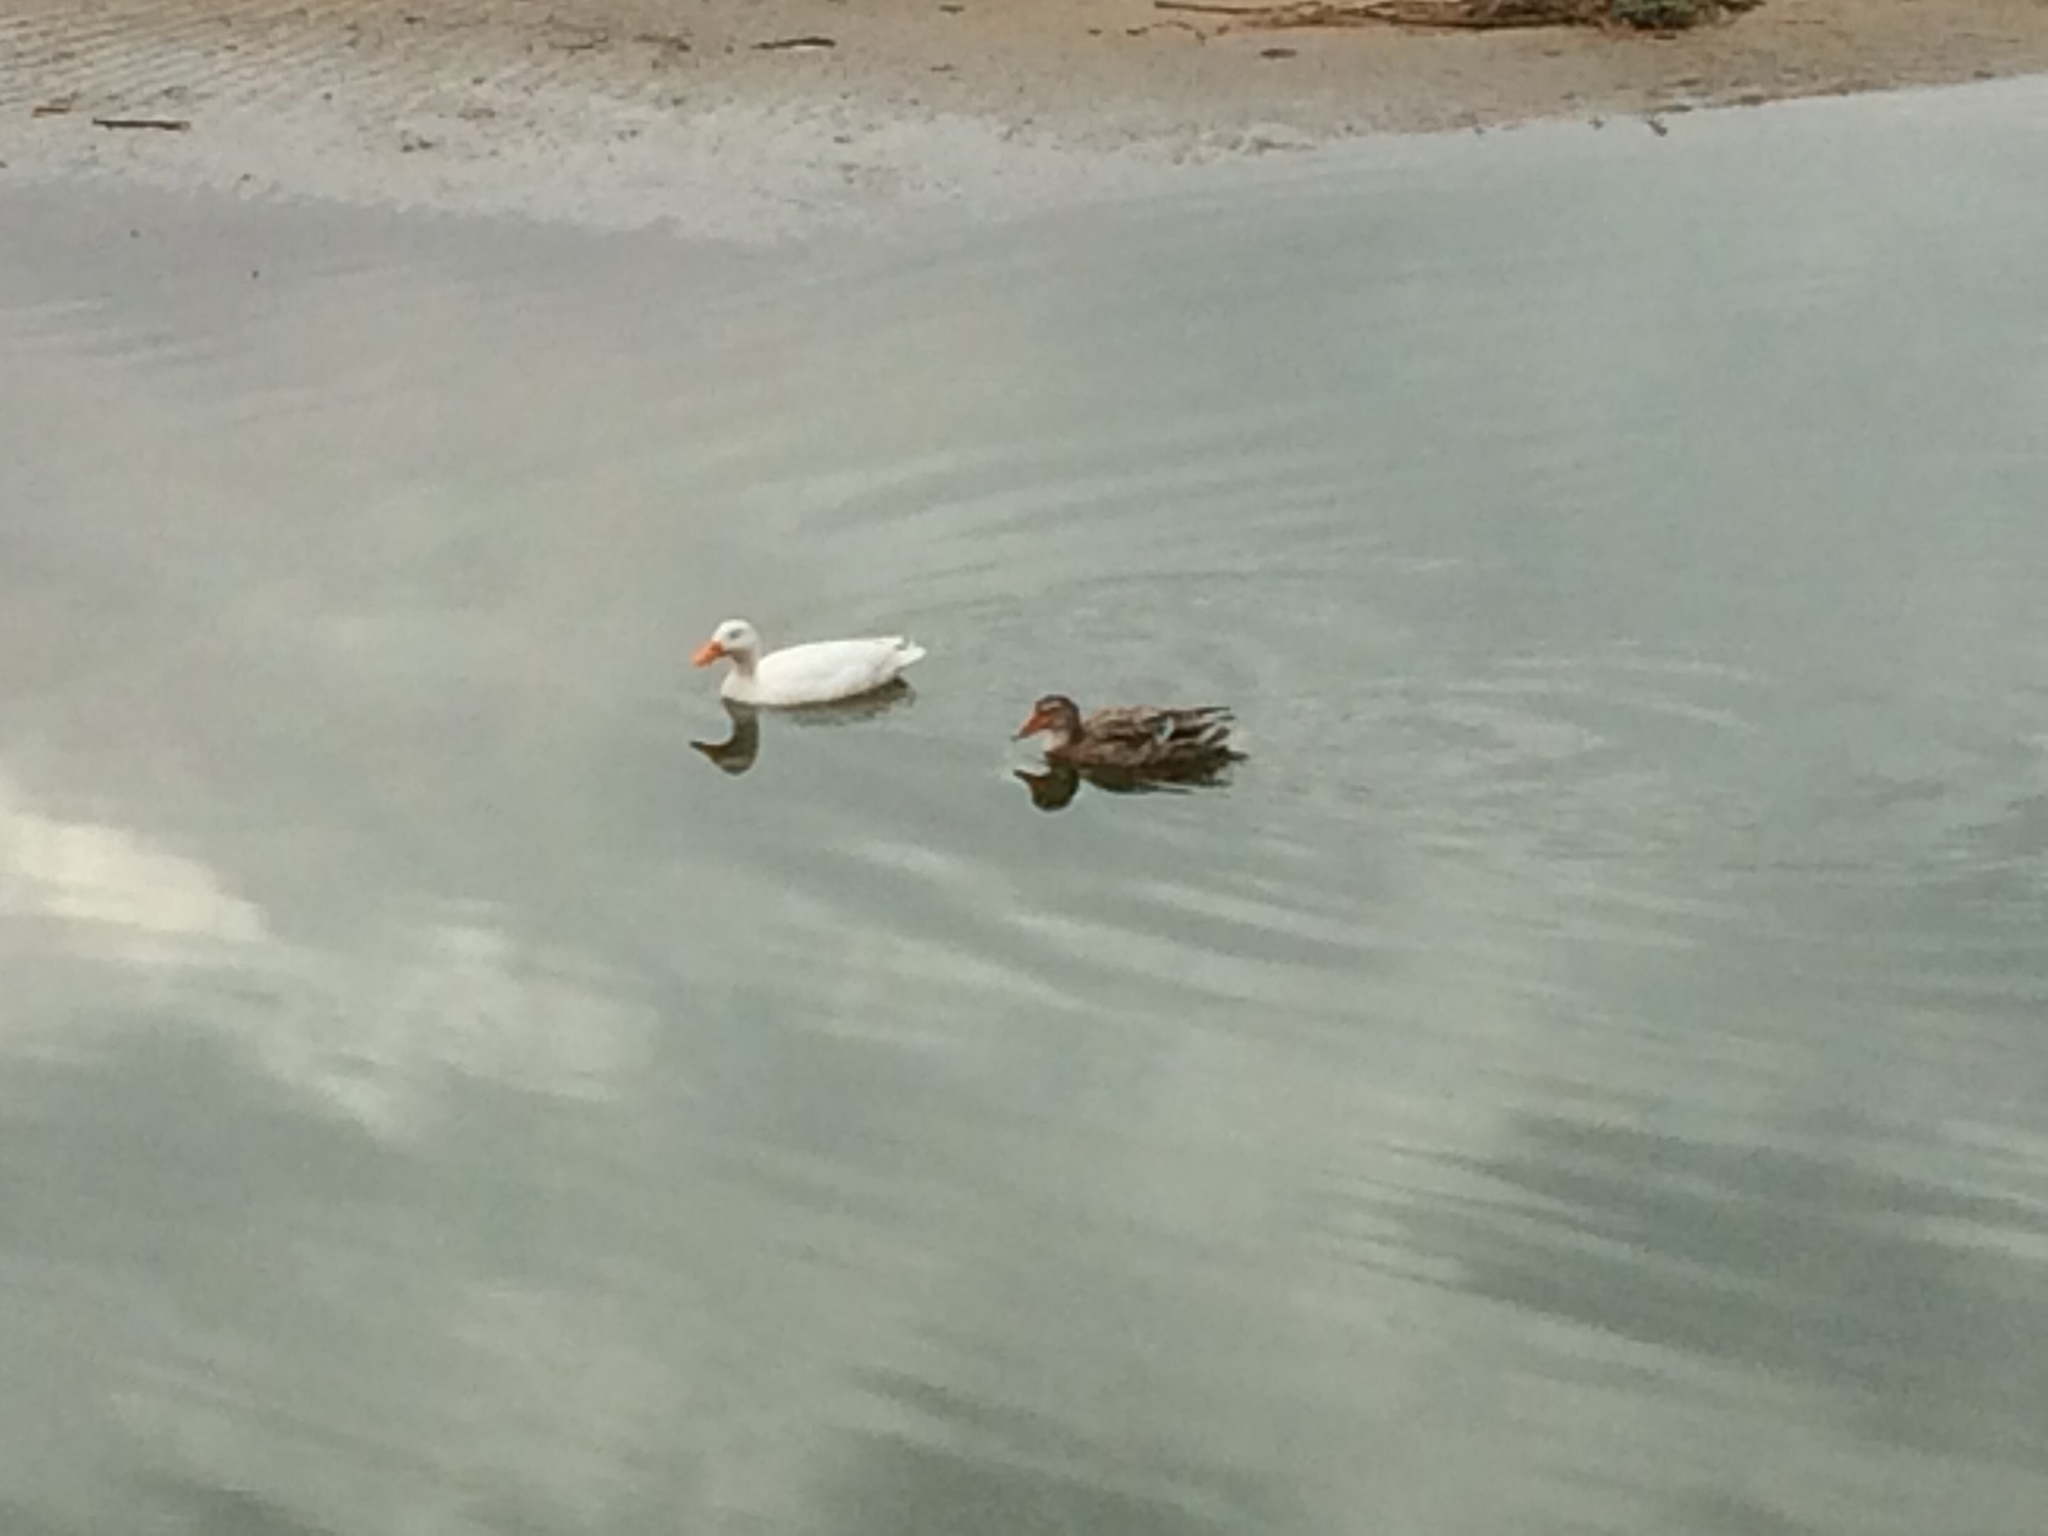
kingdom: Animalia
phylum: Chordata
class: Aves
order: Anseriformes
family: Anatidae
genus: Anas
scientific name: Anas platyrhynchos
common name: Mallard
